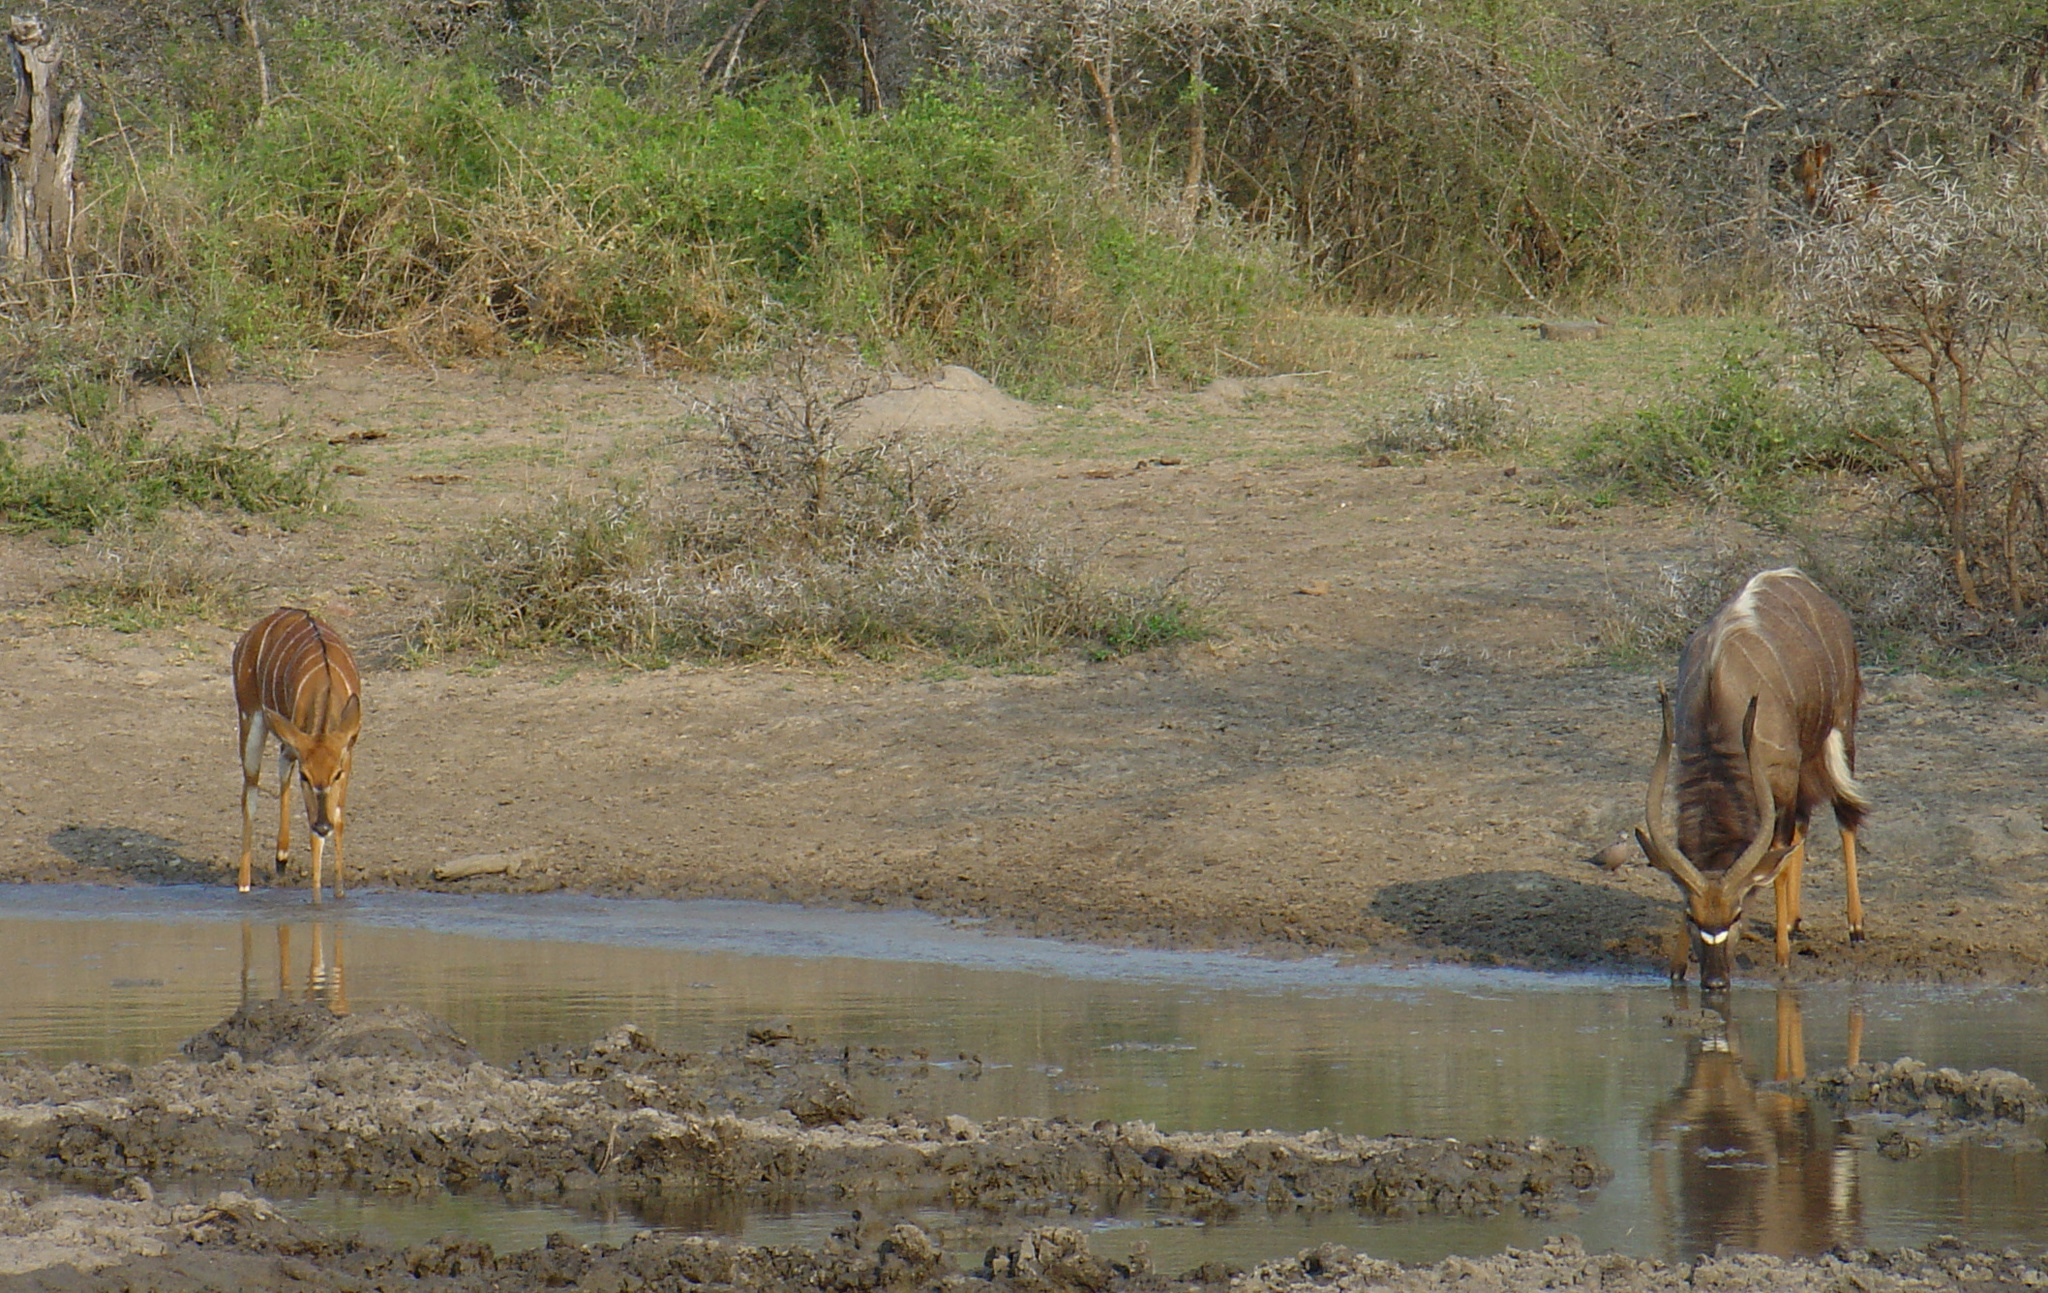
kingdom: Animalia
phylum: Chordata
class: Mammalia
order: Artiodactyla
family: Bovidae
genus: Tragelaphus
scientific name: Tragelaphus angasii
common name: Nyala
